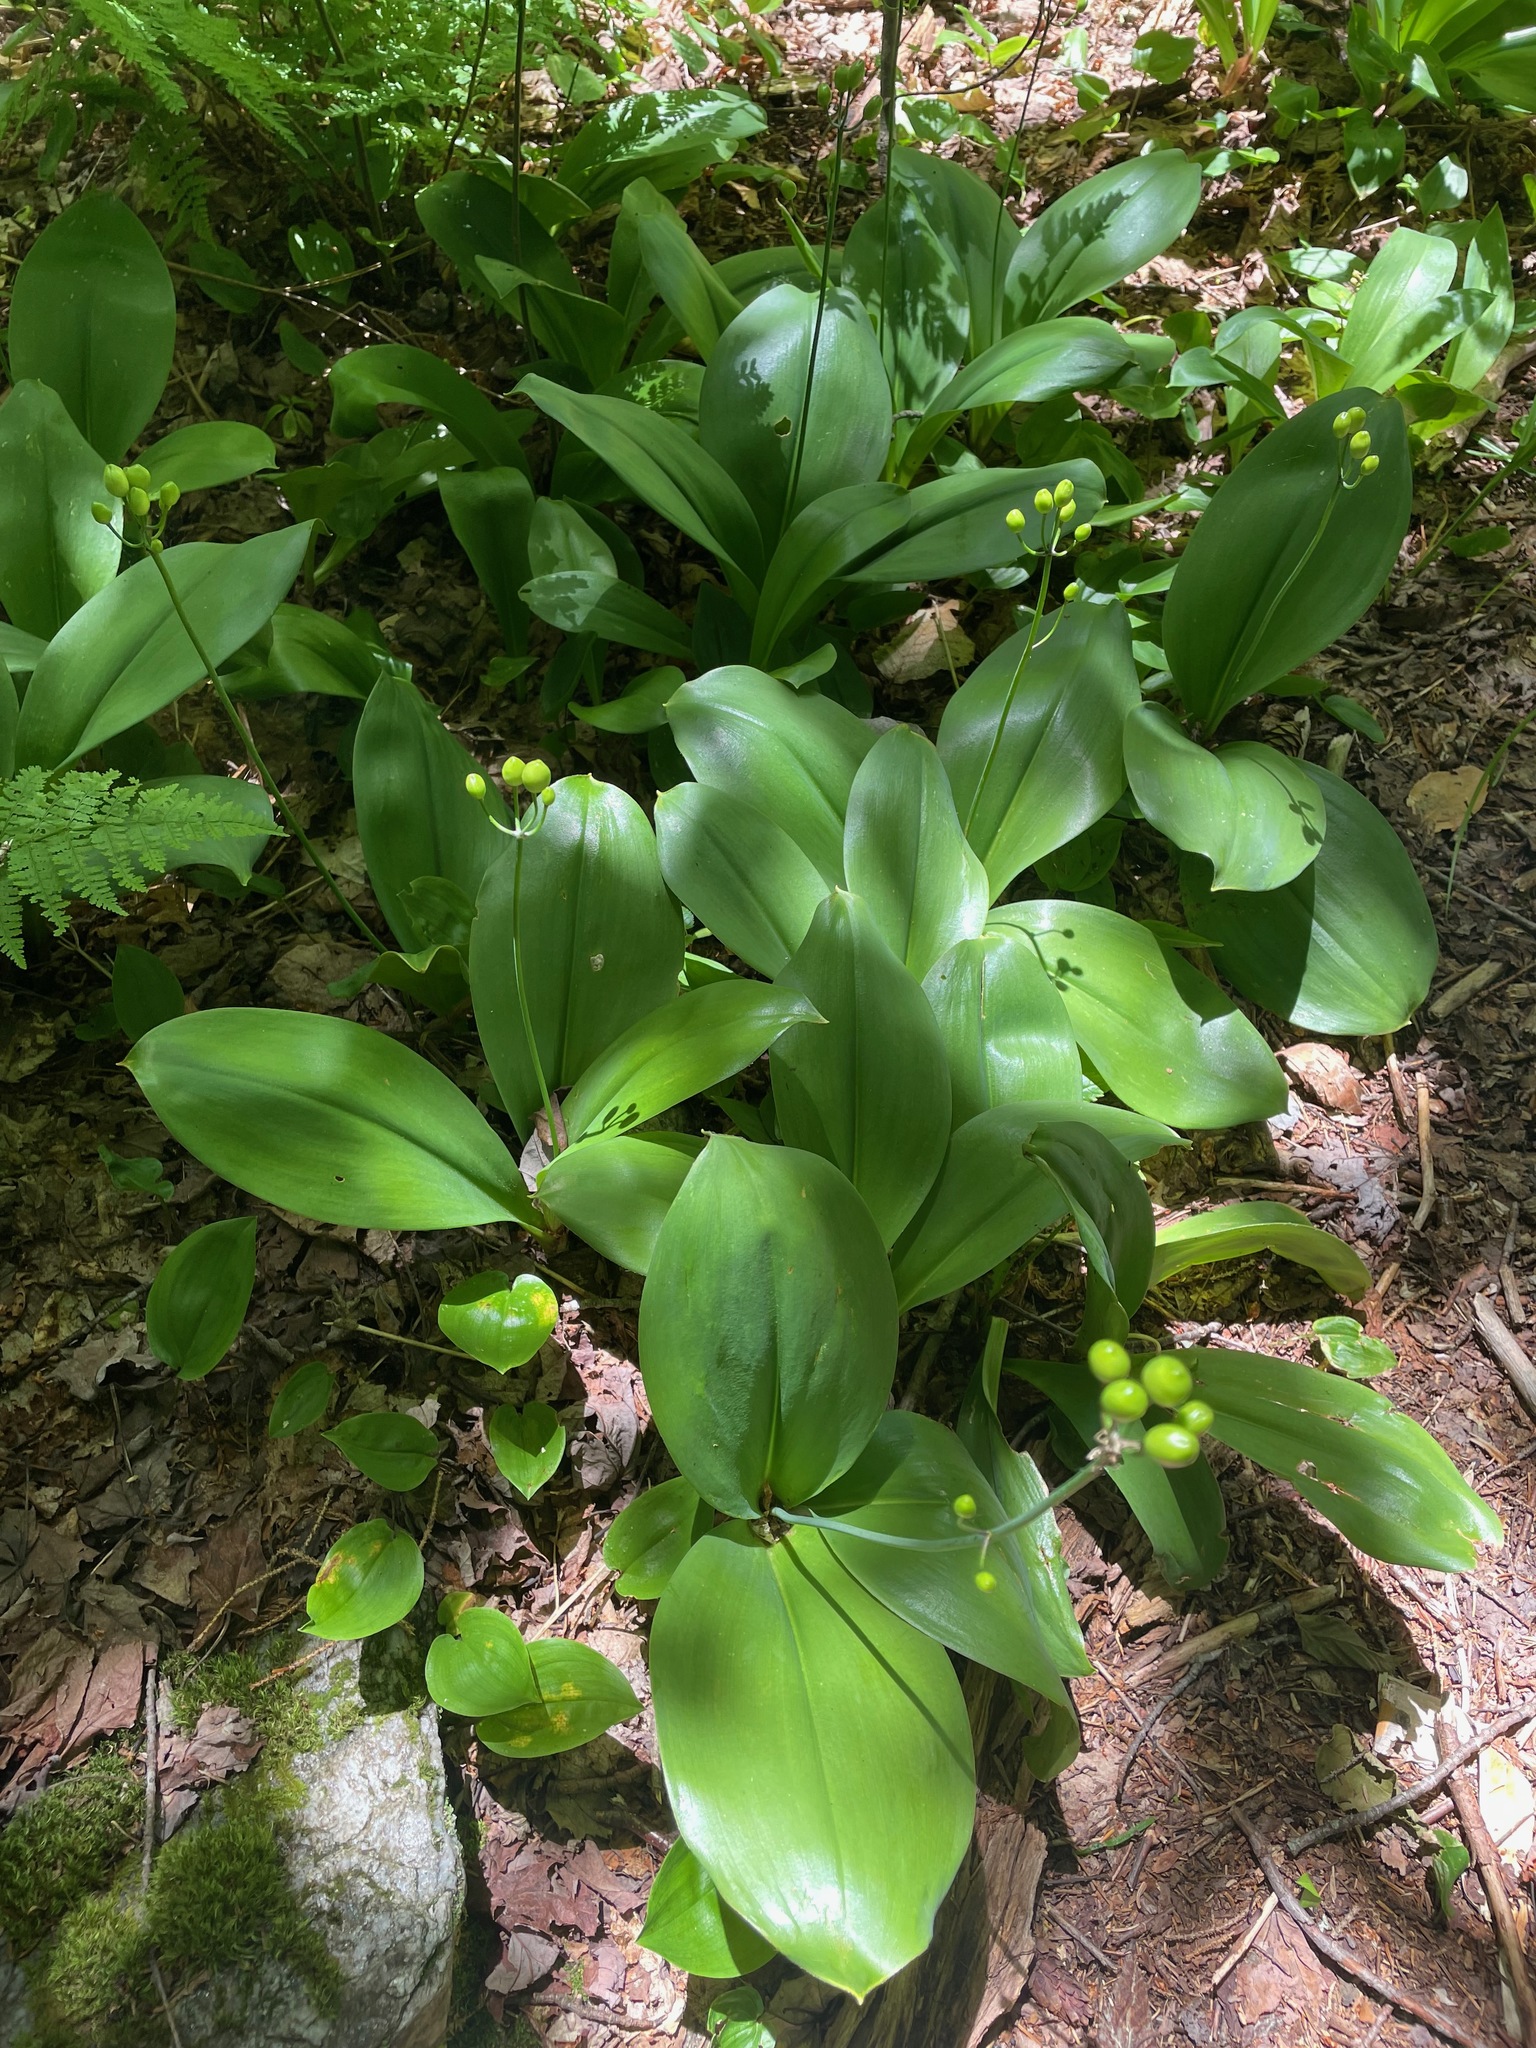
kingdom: Plantae
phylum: Tracheophyta
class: Liliopsida
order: Liliales
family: Liliaceae
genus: Clintonia
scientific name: Clintonia borealis
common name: Yellow clintonia
